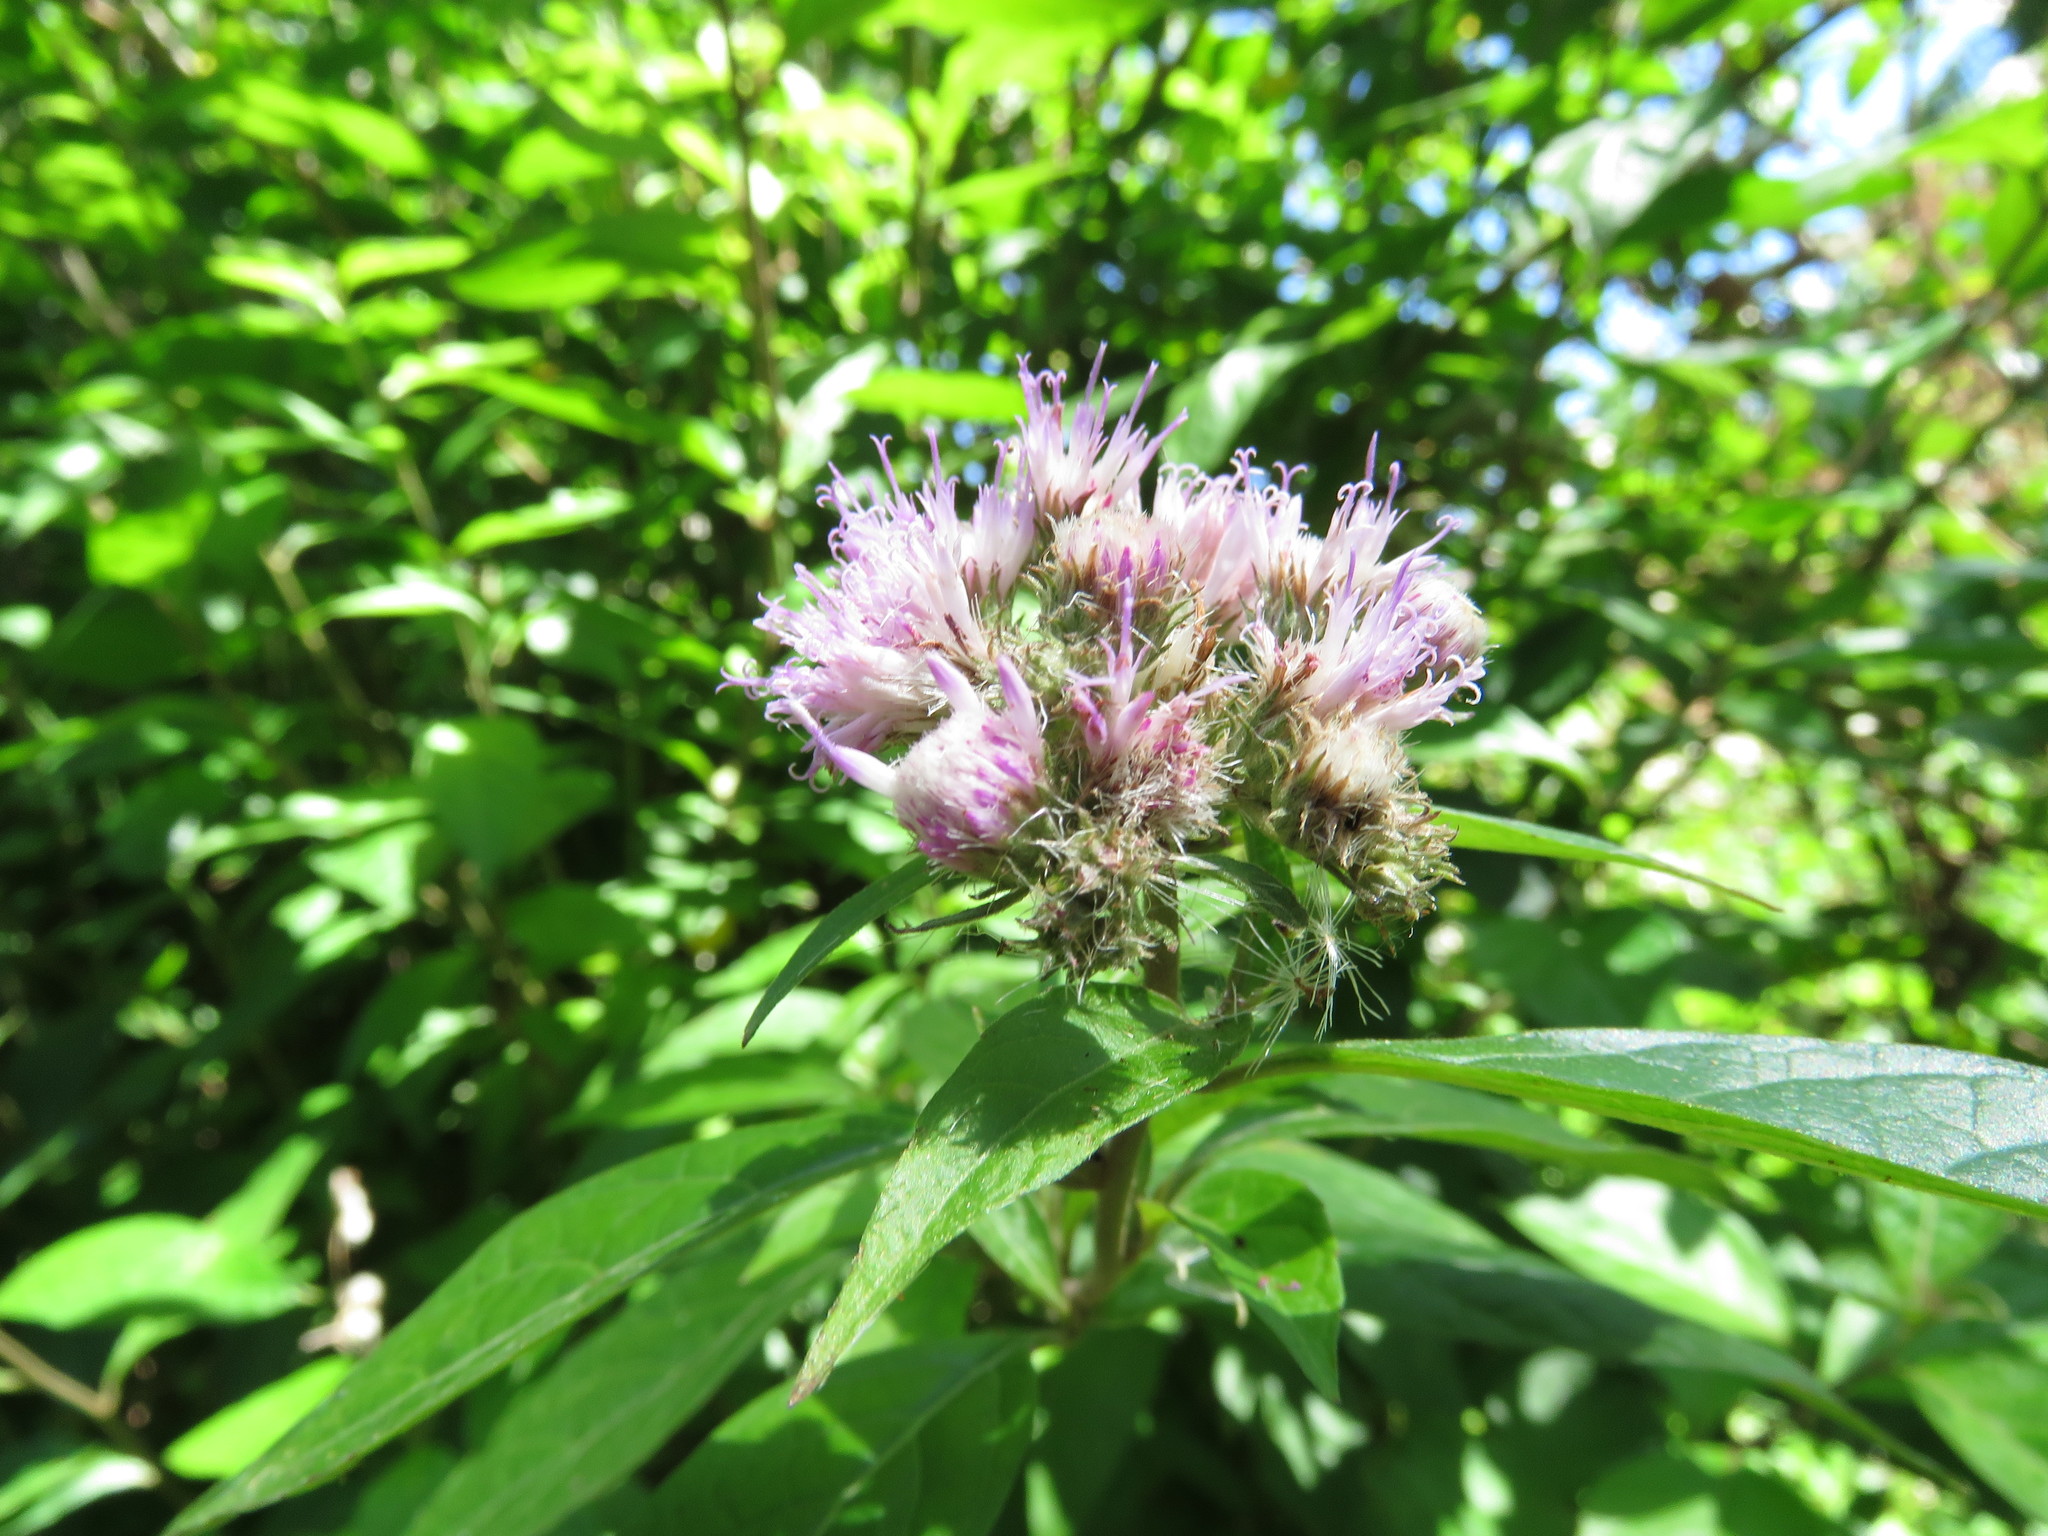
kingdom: Plantae
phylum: Tracheophyta
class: Magnoliopsida
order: Asterales
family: Asteraceae
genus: Cyrtocymura
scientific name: Cyrtocymura scorpioides
